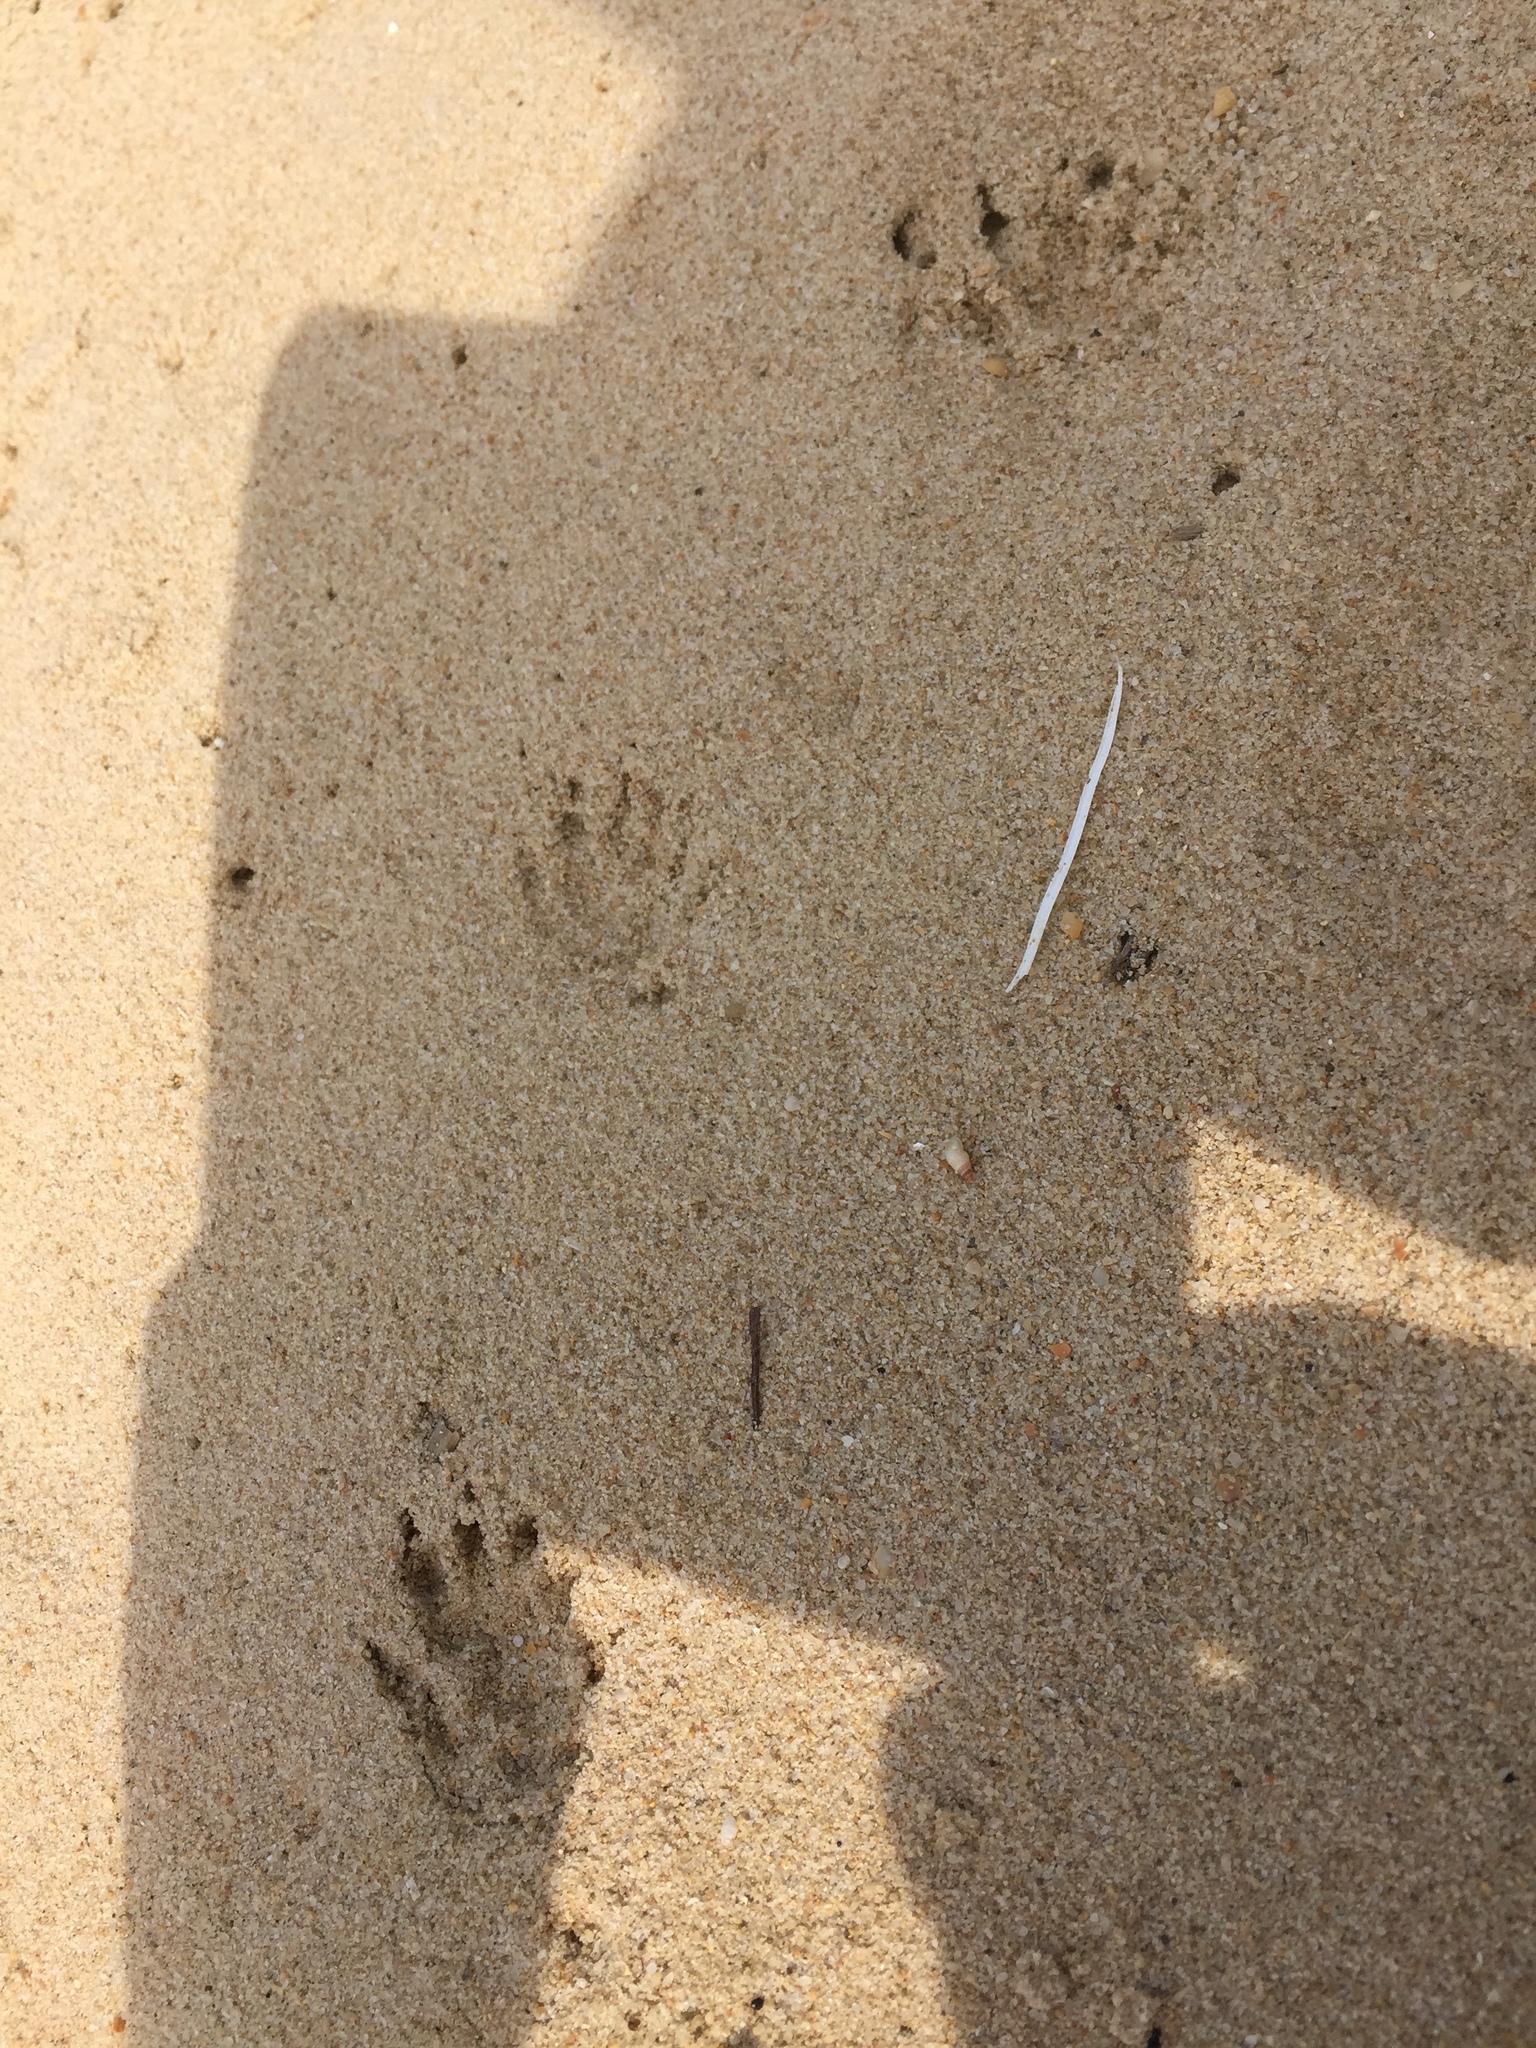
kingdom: Animalia
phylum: Chordata
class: Mammalia
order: Erinaceomorpha
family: Erinaceidae
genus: Erinaceus
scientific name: Erinaceus europaeus
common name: West european hedgehog
